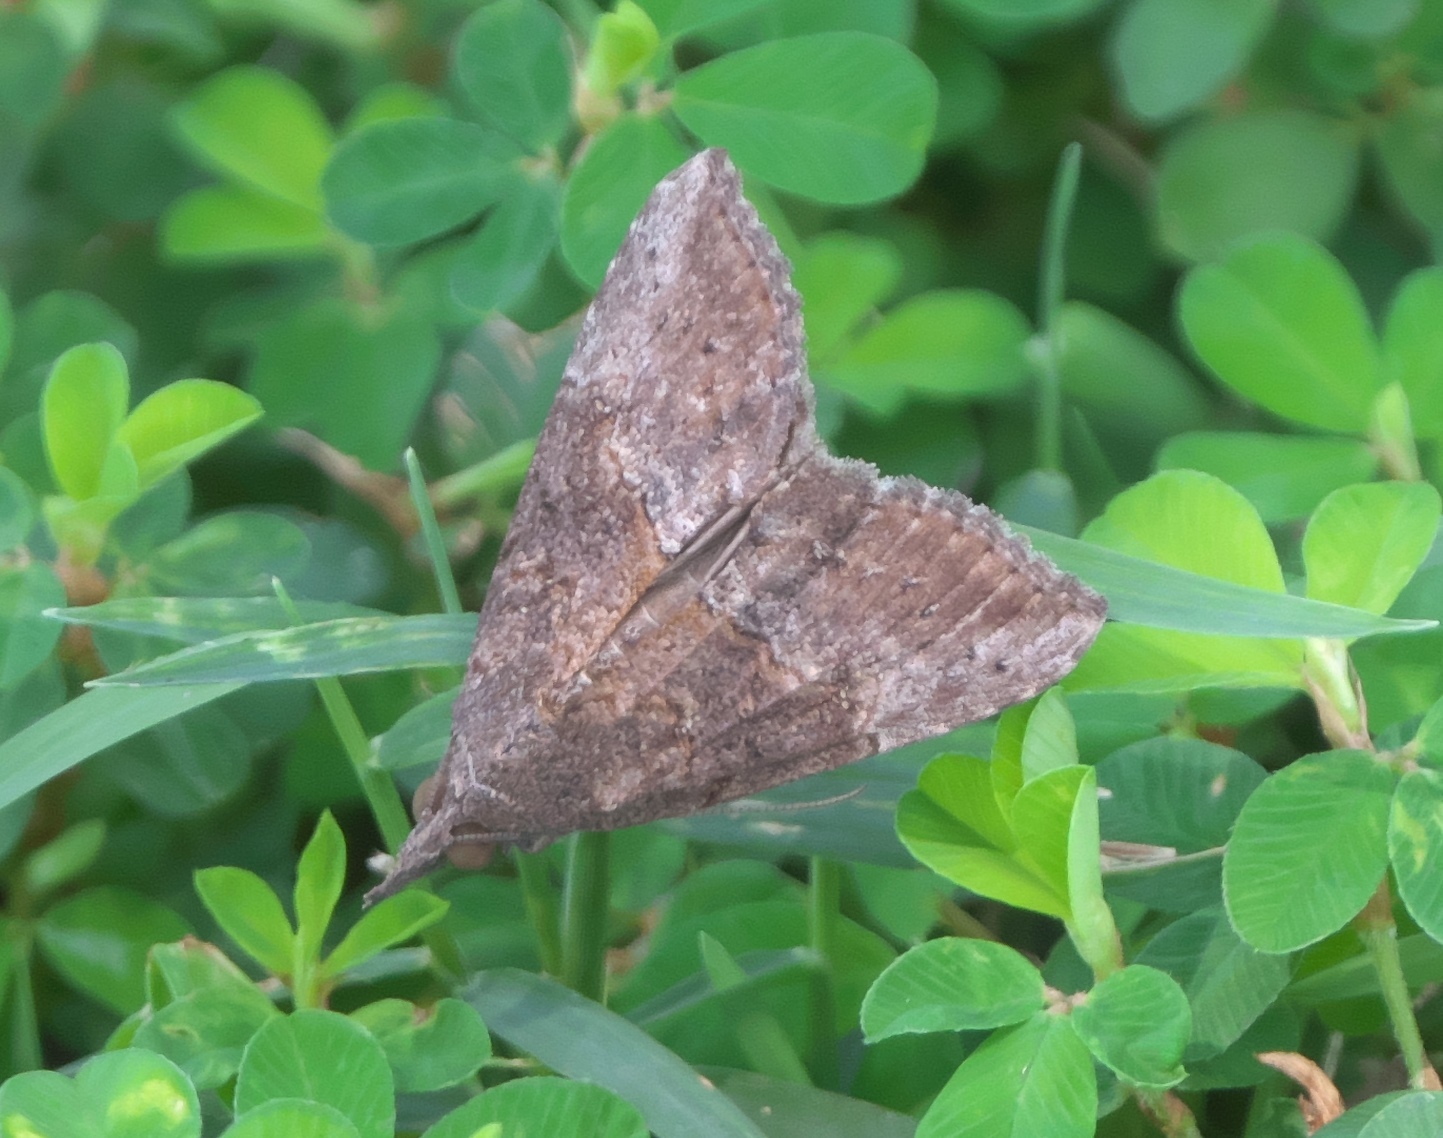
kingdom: Animalia
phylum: Arthropoda
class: Insecta
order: Lepidoptera
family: Erebidae
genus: Hypena
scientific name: Hypena scabra
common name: Green cloverworm
